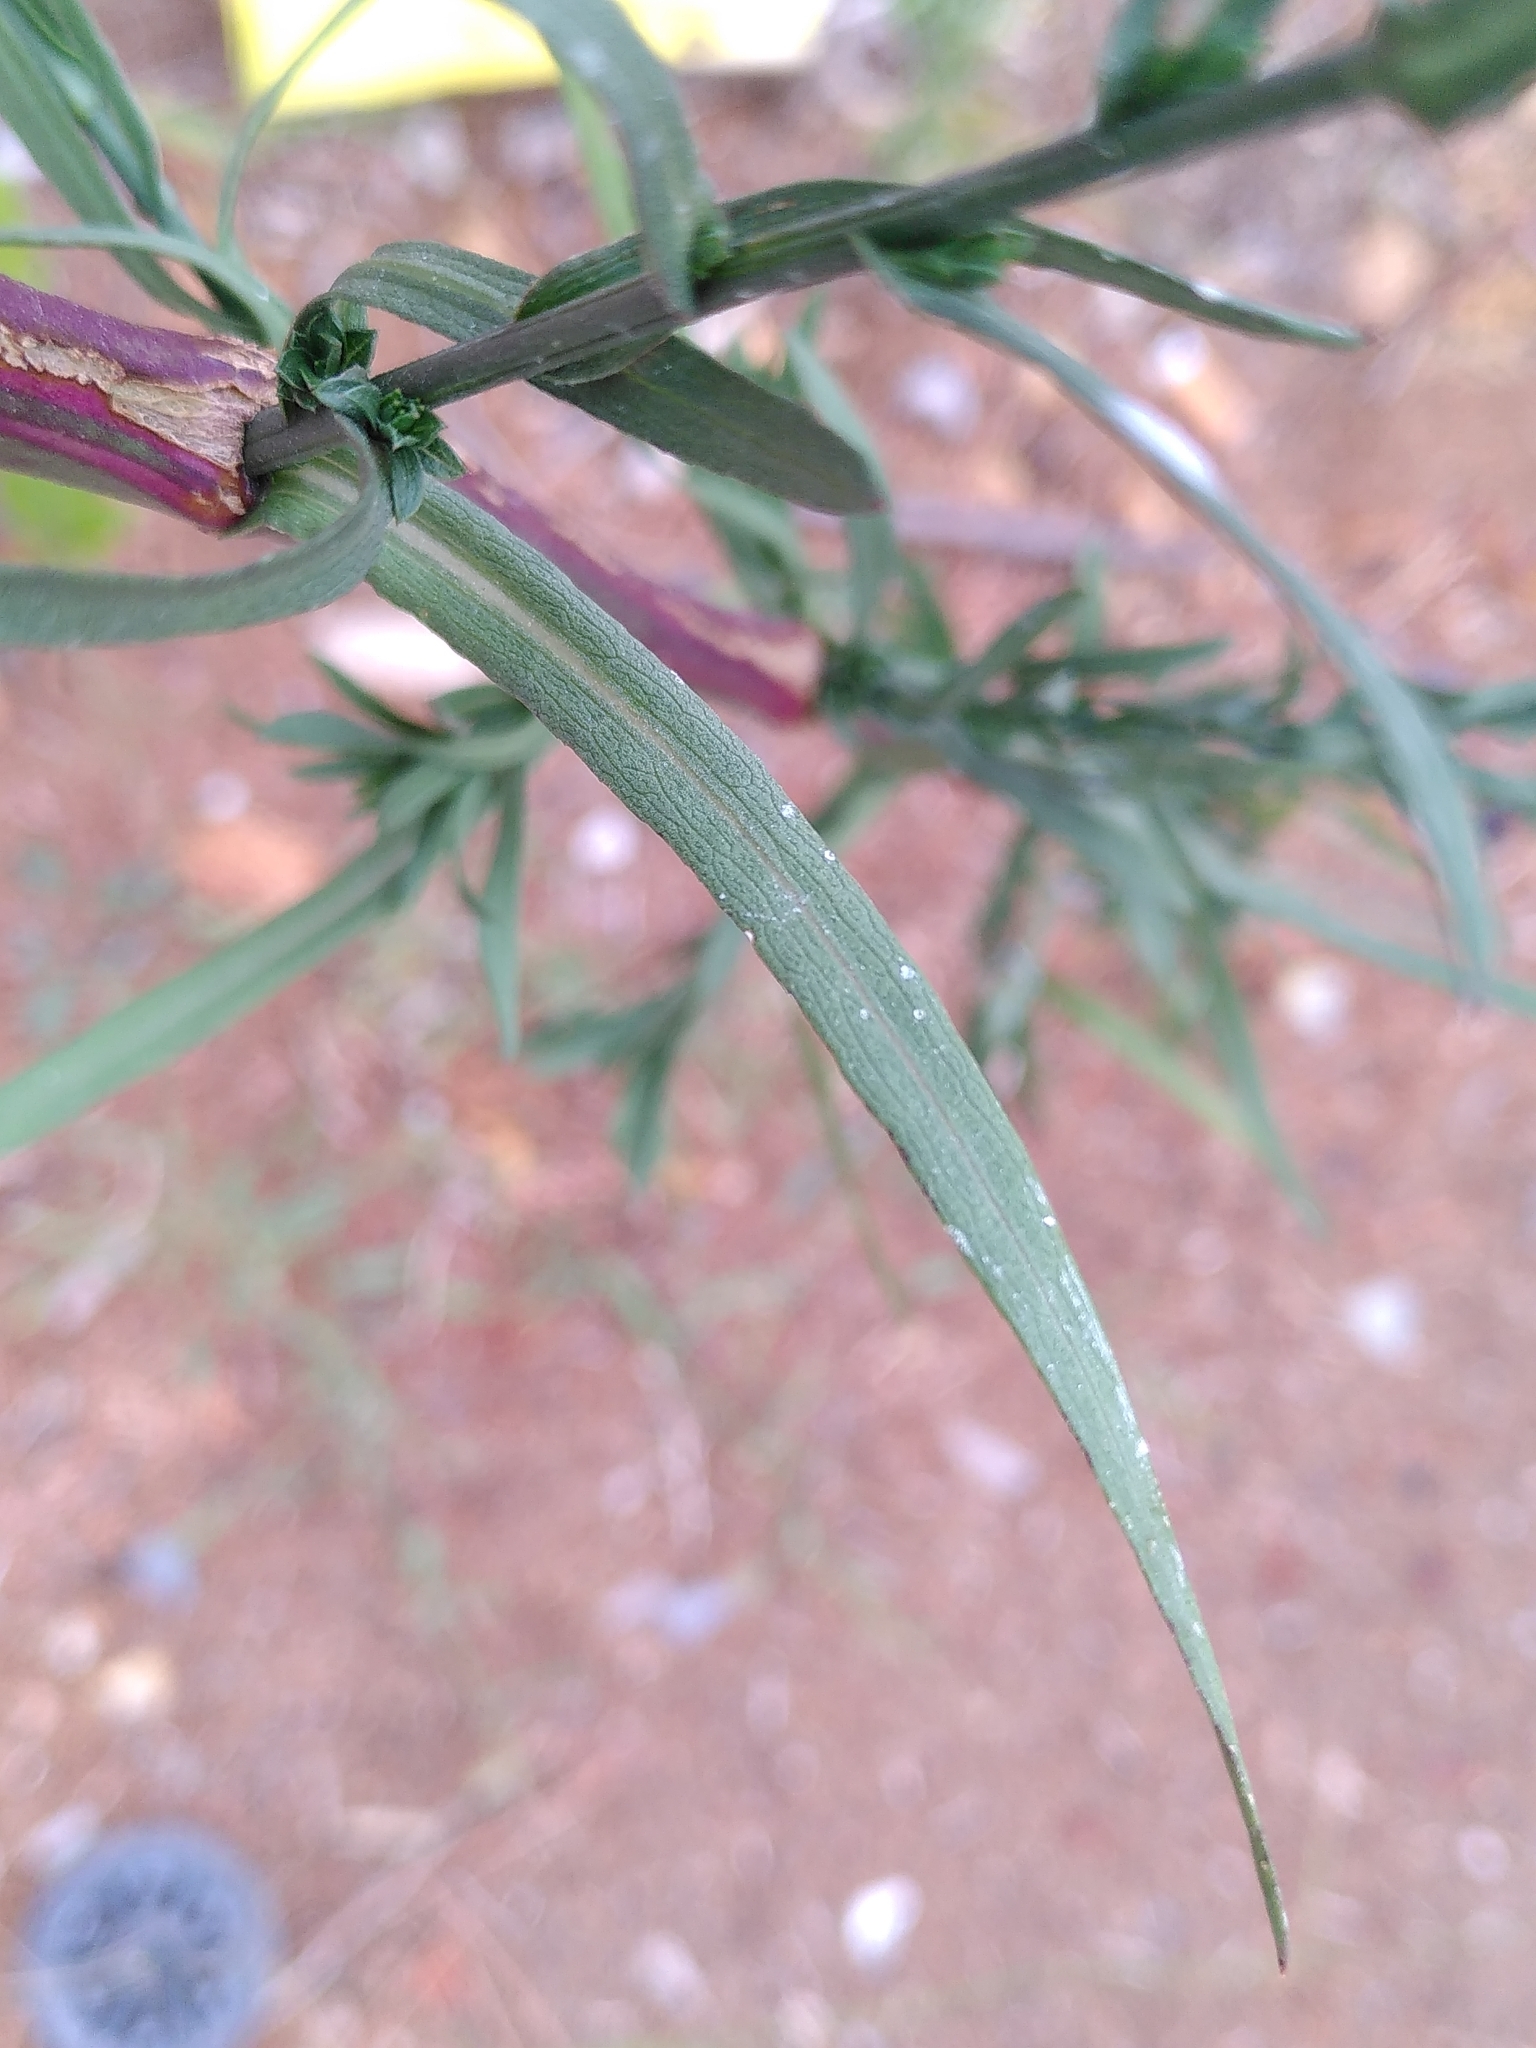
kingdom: Plantae
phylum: Tracheophyta
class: Magnoliopsida
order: Asterales
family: Asteraceae
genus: Symphyotrichum
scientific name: Symphyotrichum squamatum
